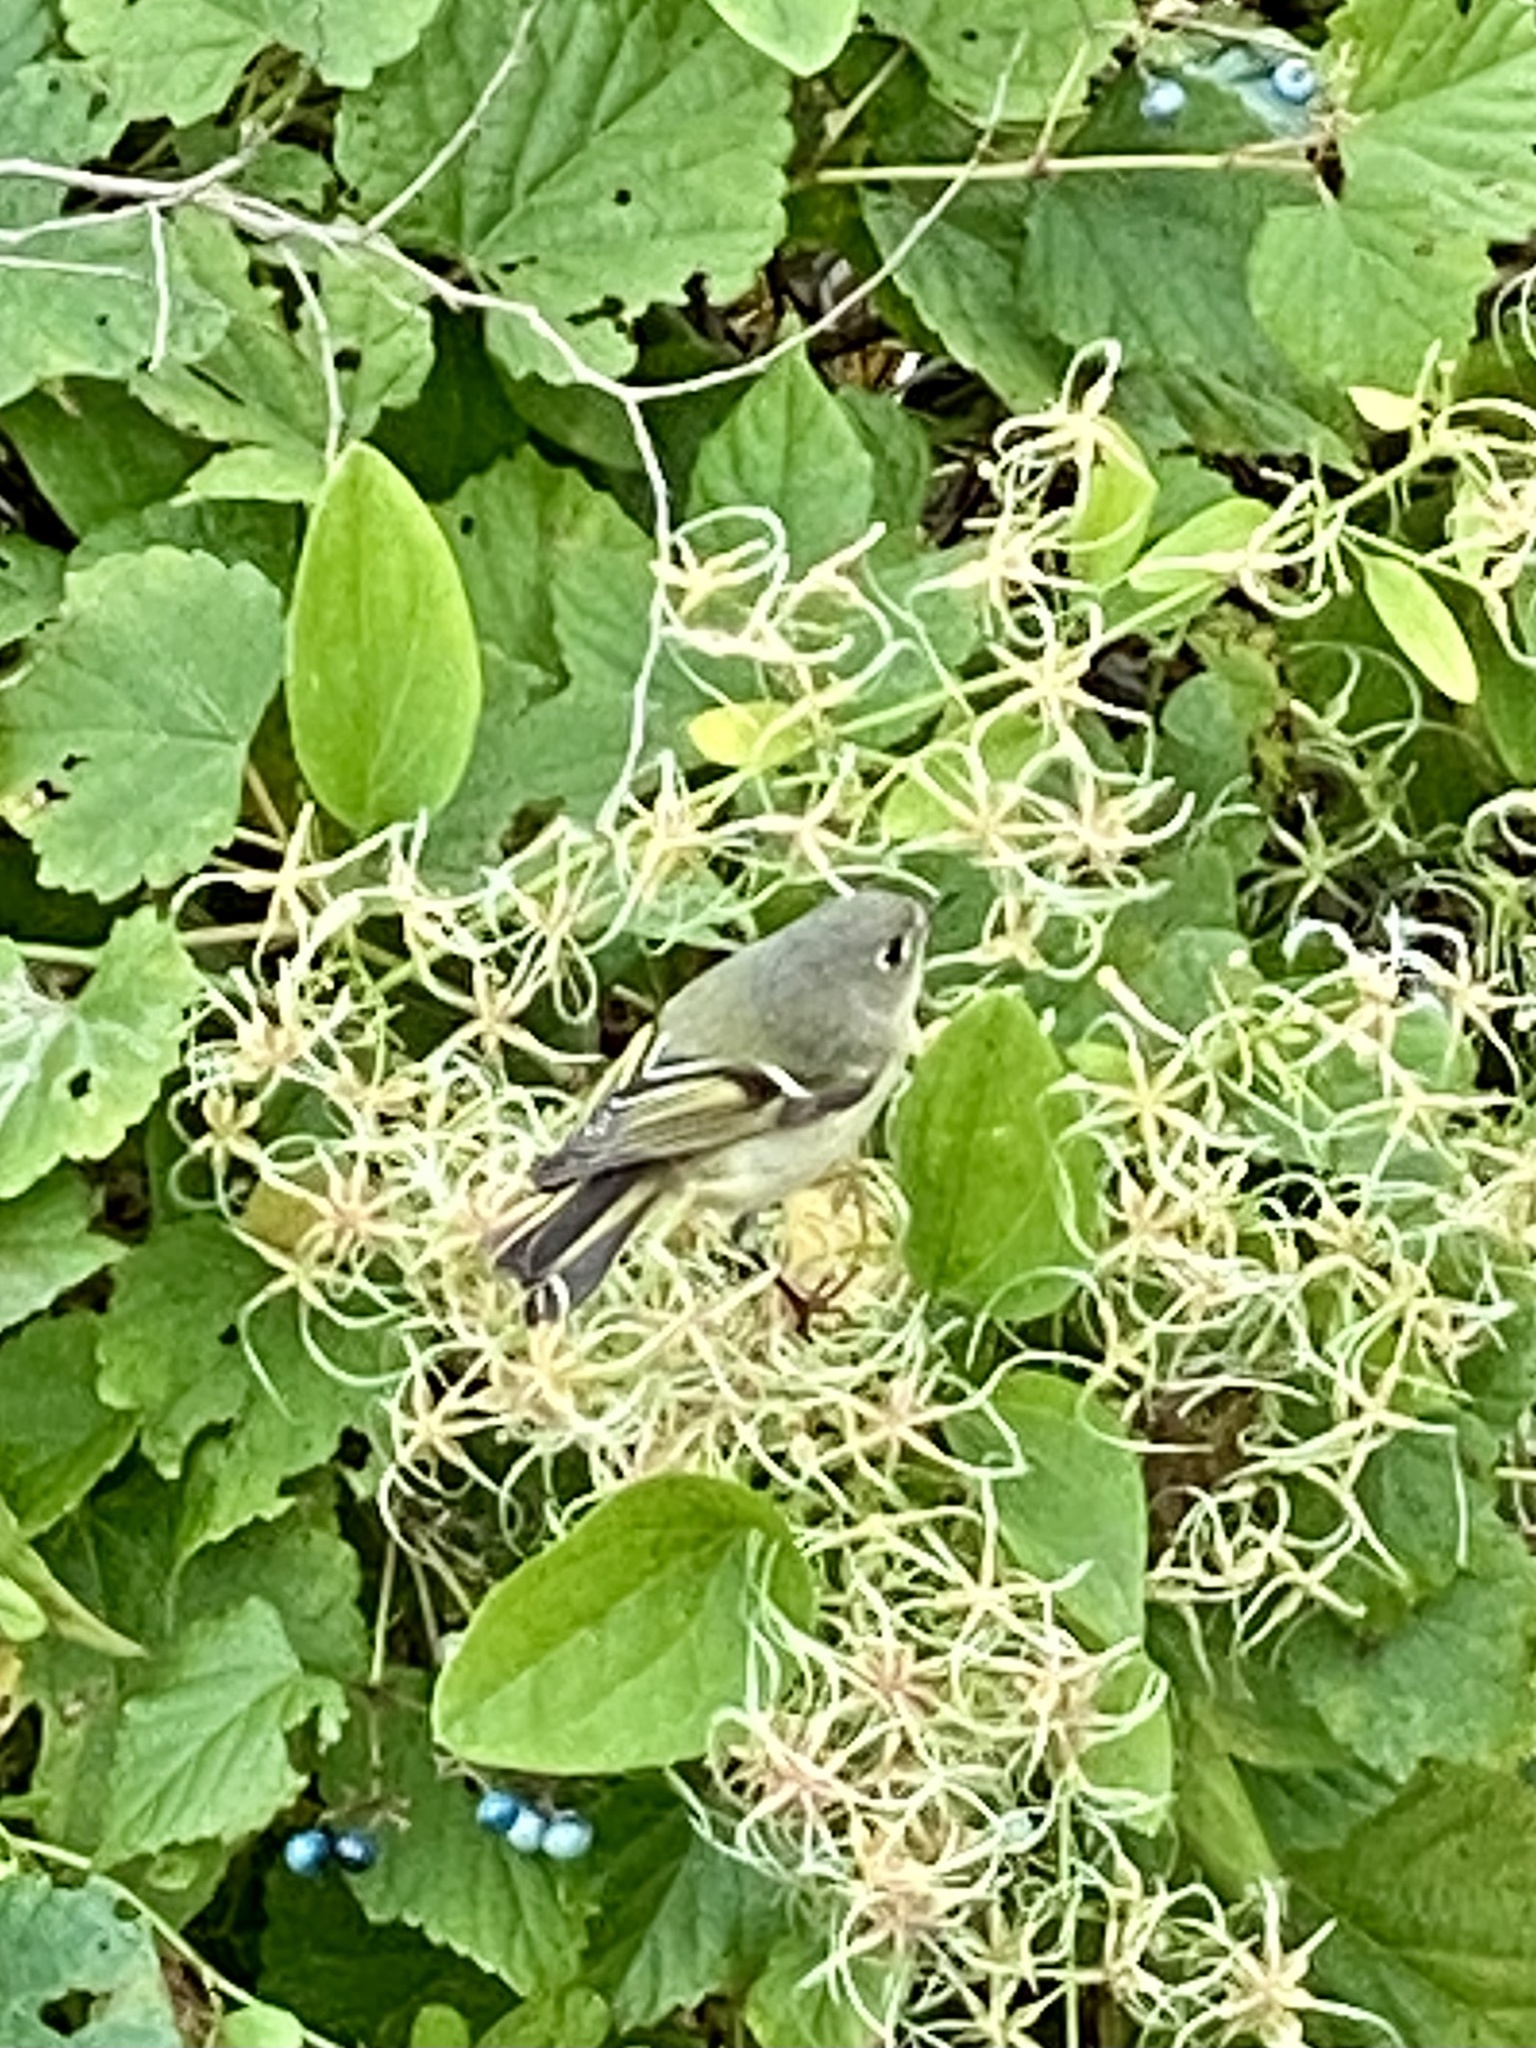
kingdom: Animalia
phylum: Chordata
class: Aves
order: Passeriformes
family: Regulidae
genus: Regulus
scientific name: Regulus calendula
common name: Ruby-crowned kinglet
